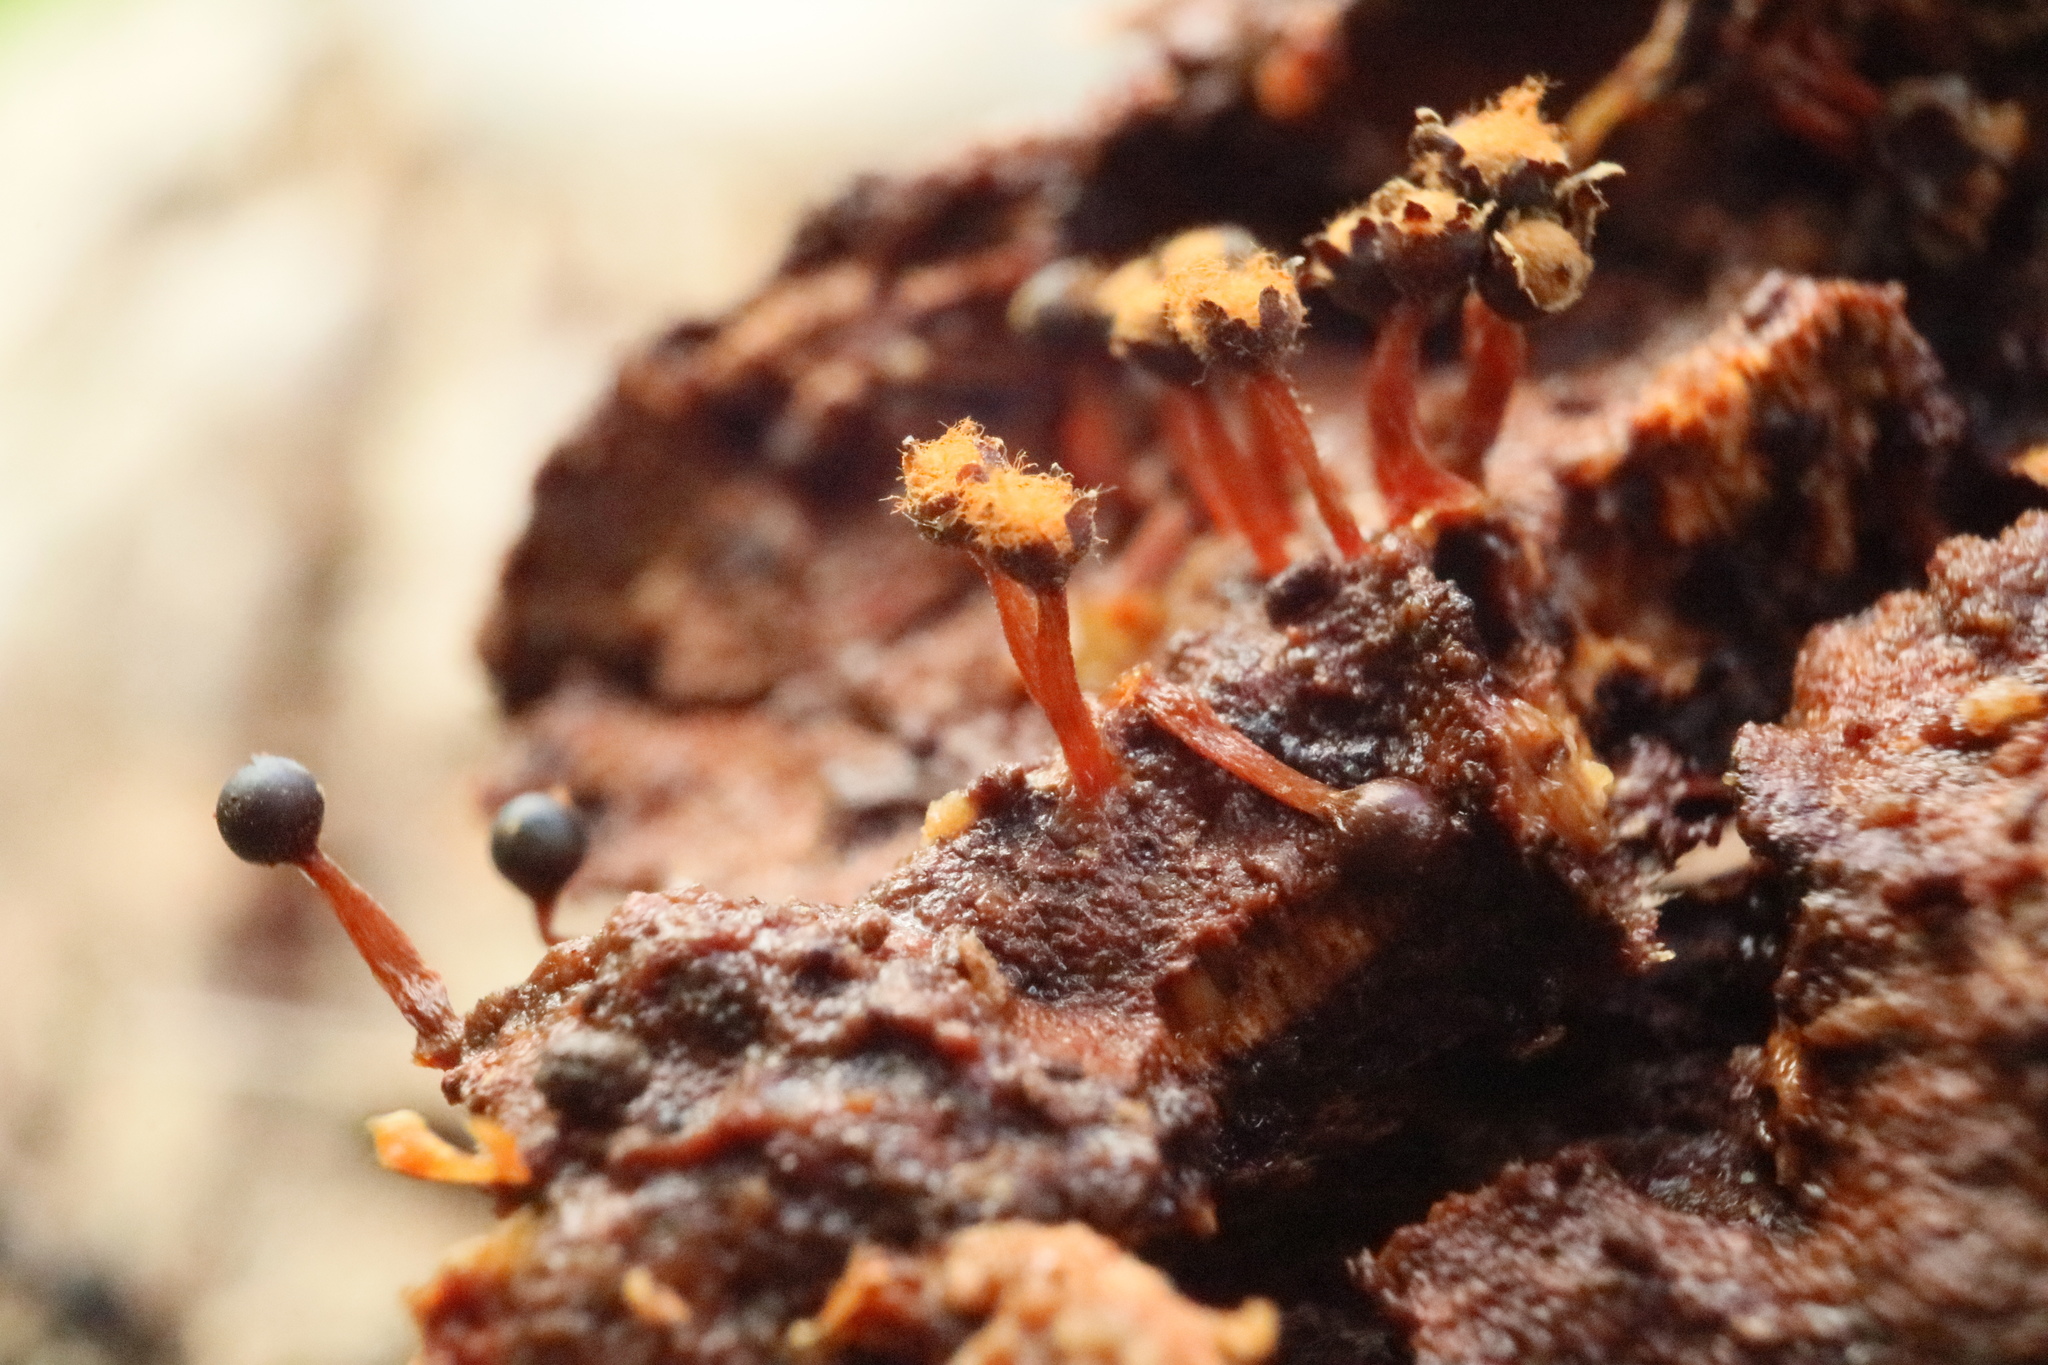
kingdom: Protozoa
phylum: Mycetozoa
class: Myxomycetes
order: Trichiales
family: Trichiaceae
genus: Metatrichia
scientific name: Metatrichia floriformis
